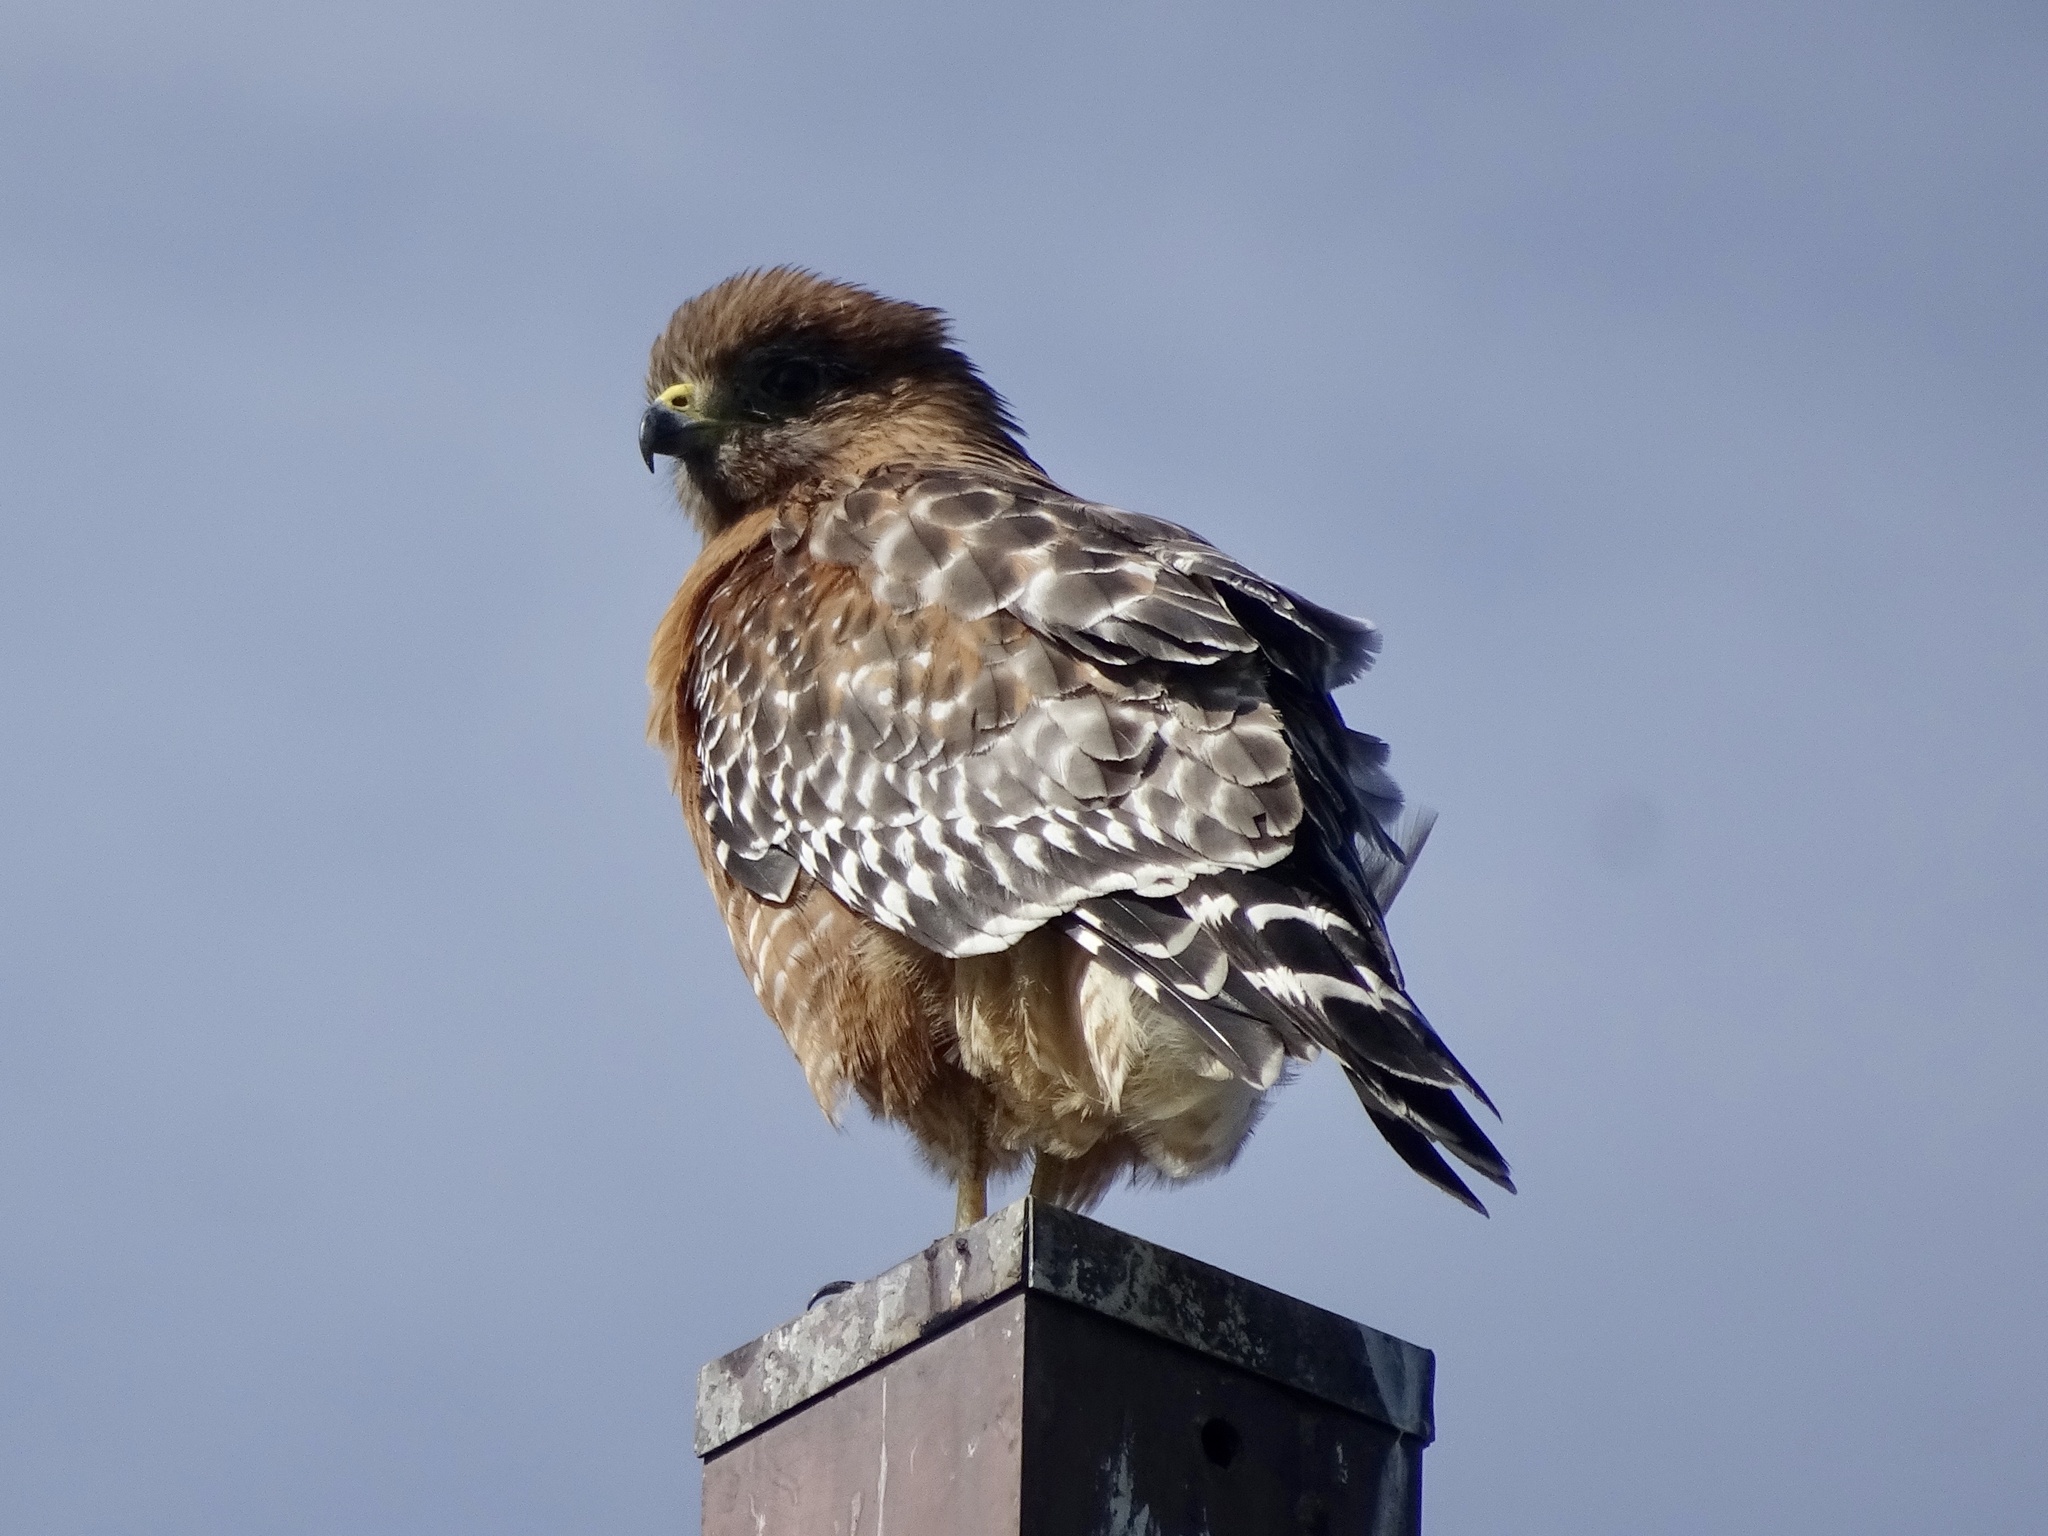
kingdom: Animalia
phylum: Chordata
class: Aves
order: Accipitriformes
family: Accipitridae
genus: Buteo
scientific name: Buteo lineatus
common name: Red-shouldered hawk
